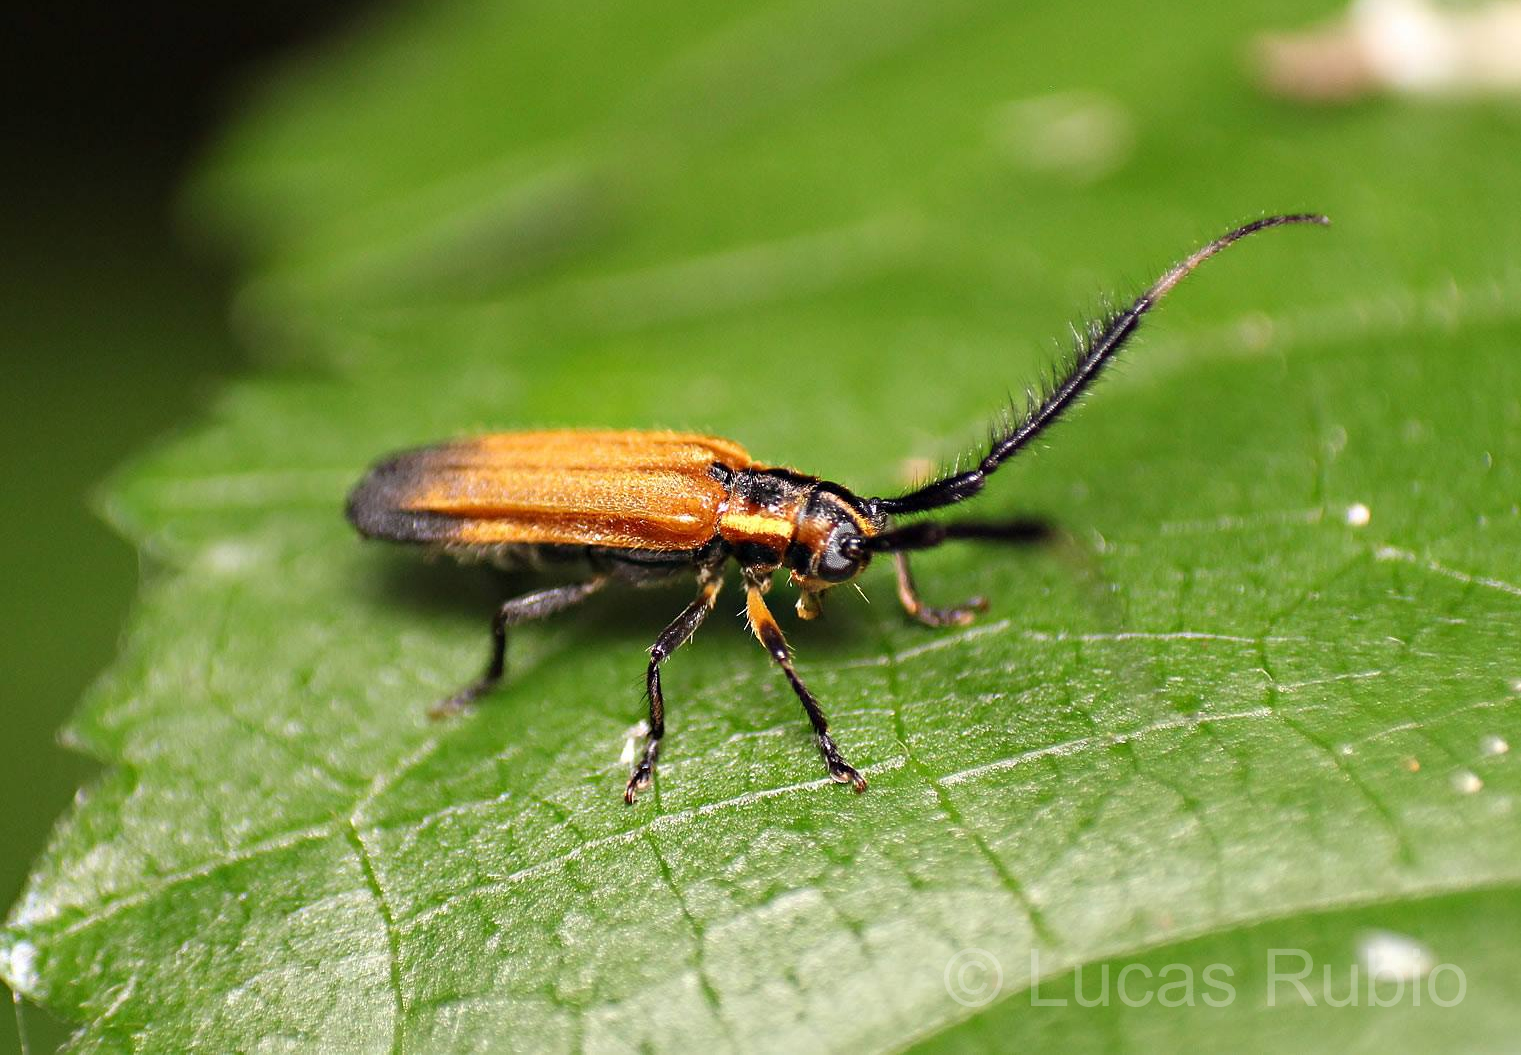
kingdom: Animalia
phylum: Arthropoda
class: Insecta
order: Coleoptera
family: Cerambycidae
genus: Malacoscylus
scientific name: Malacoscylus gonostigma
